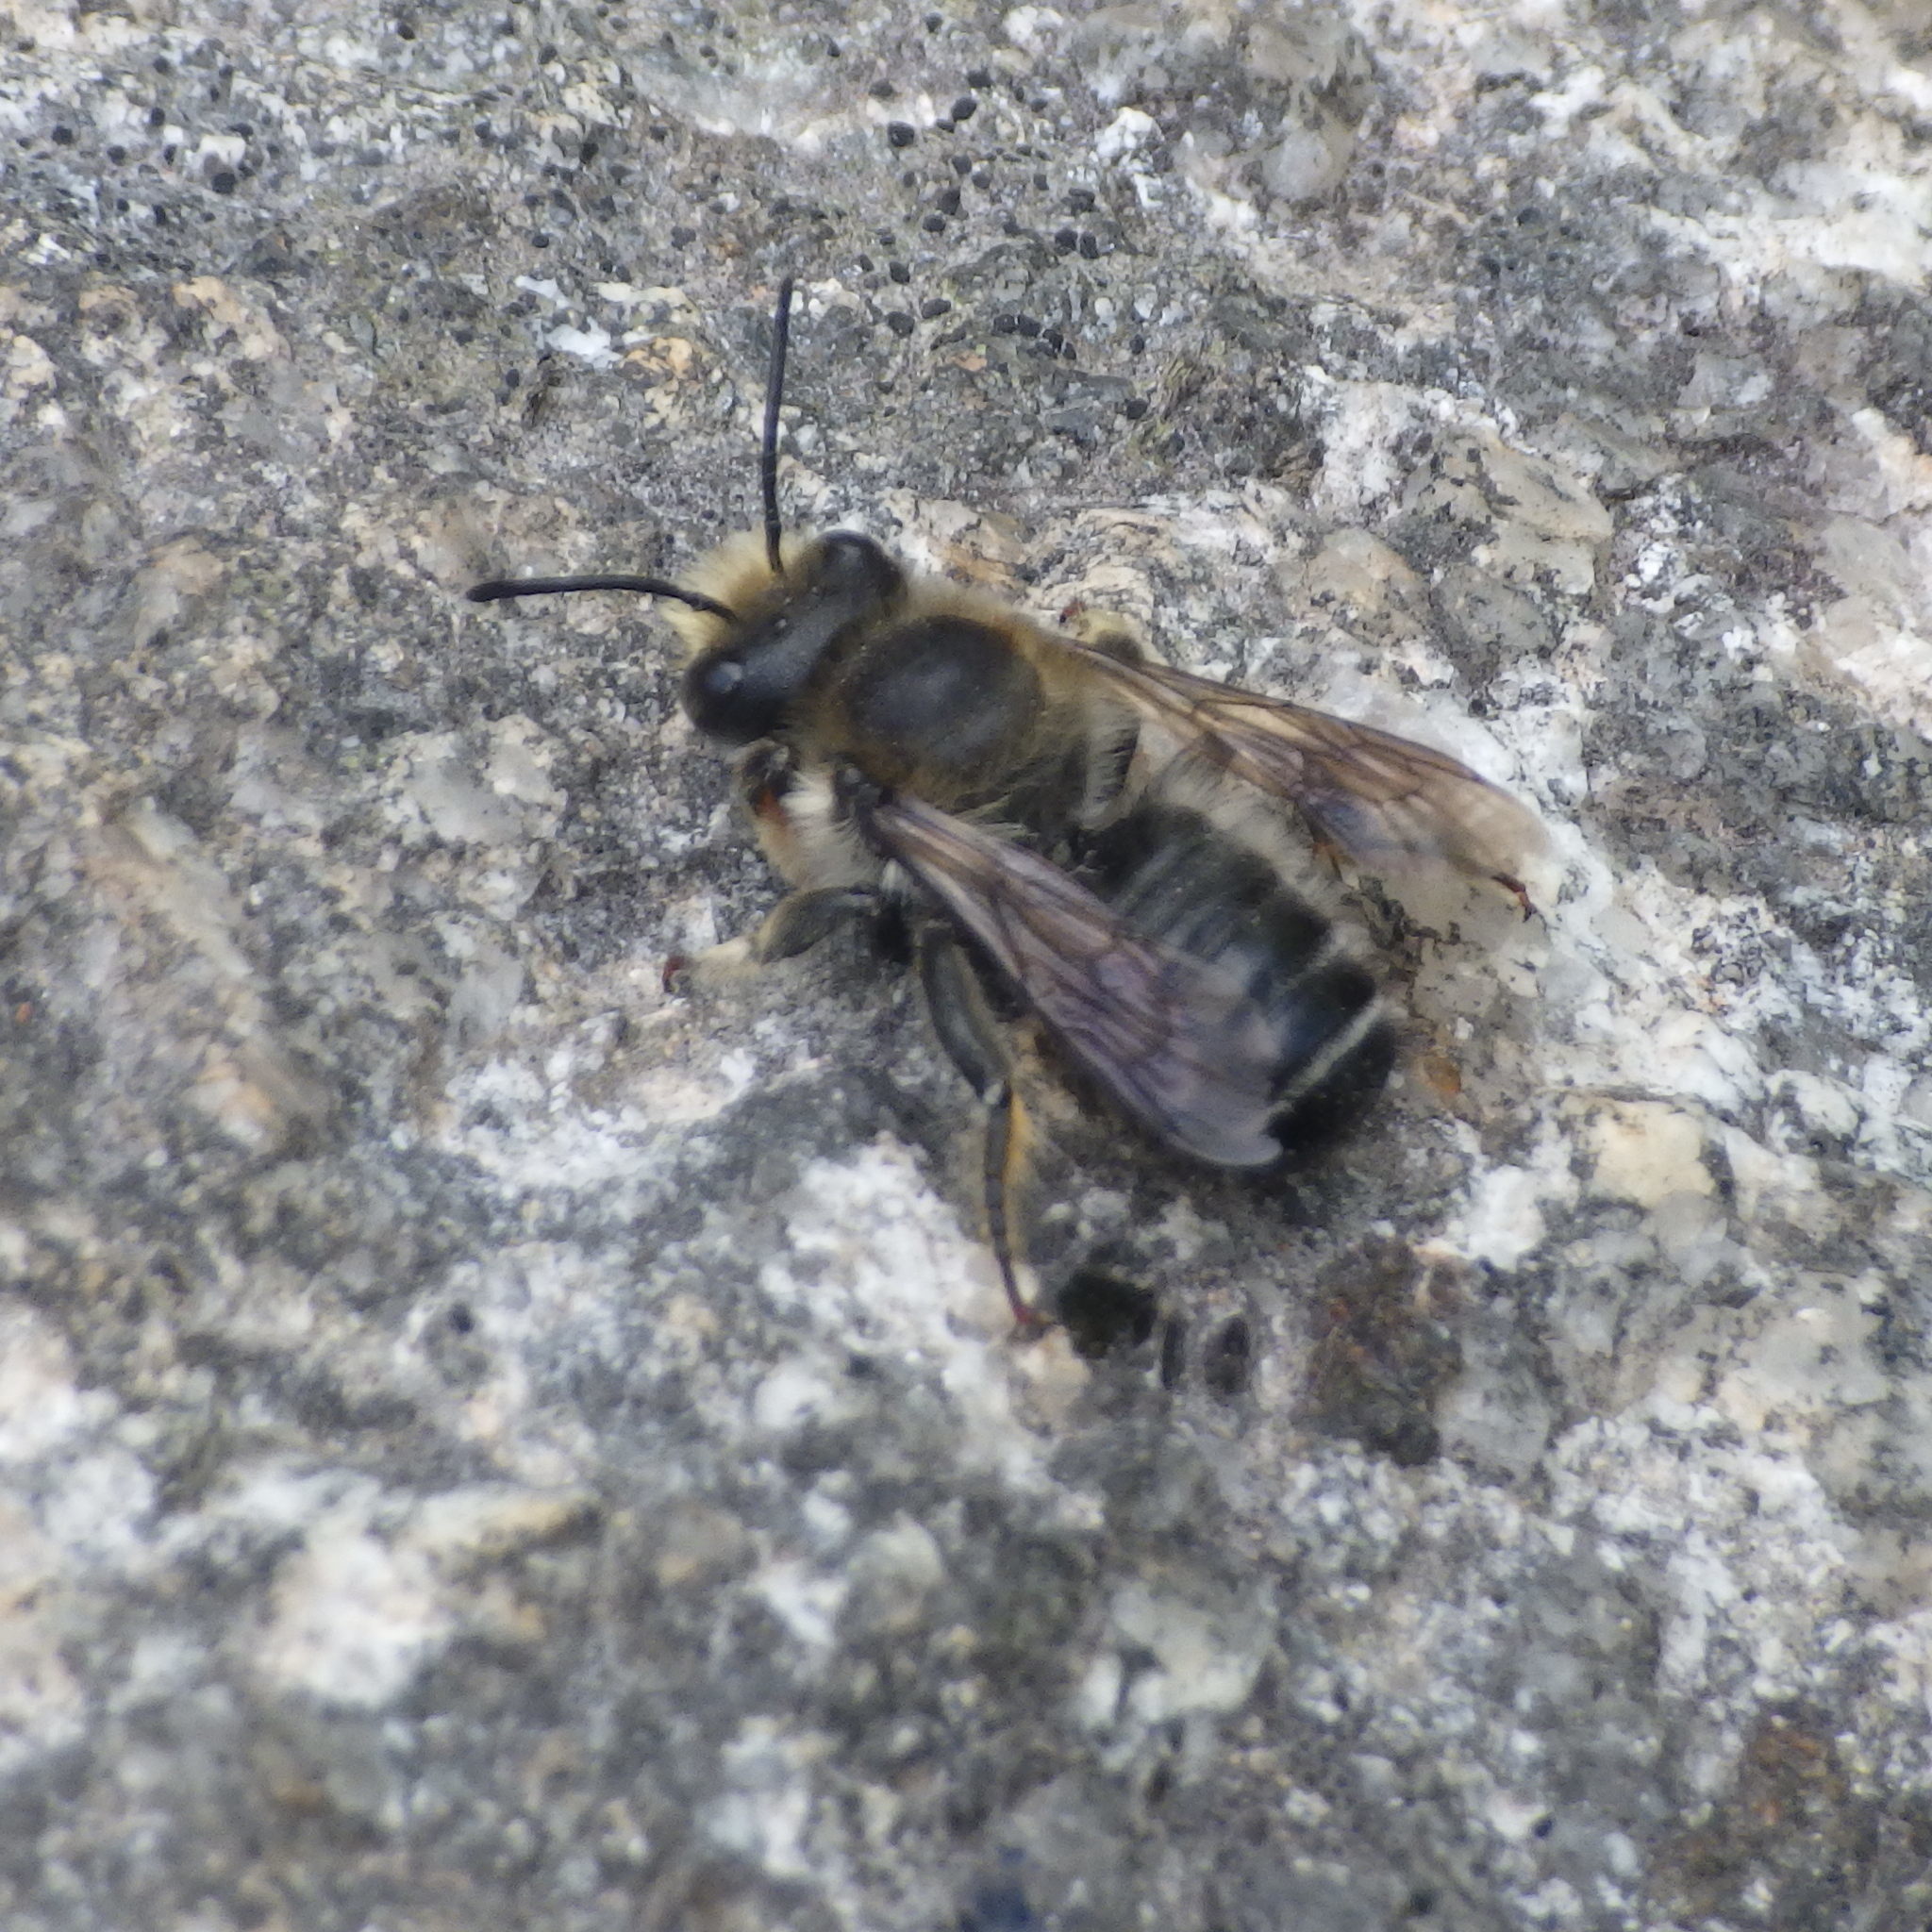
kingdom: Animalia
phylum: Arthropoda
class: Insecta
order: Hymenoptera
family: Megachilidae
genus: Megachile
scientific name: Megachile frigida
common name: Frigid leafcutter
